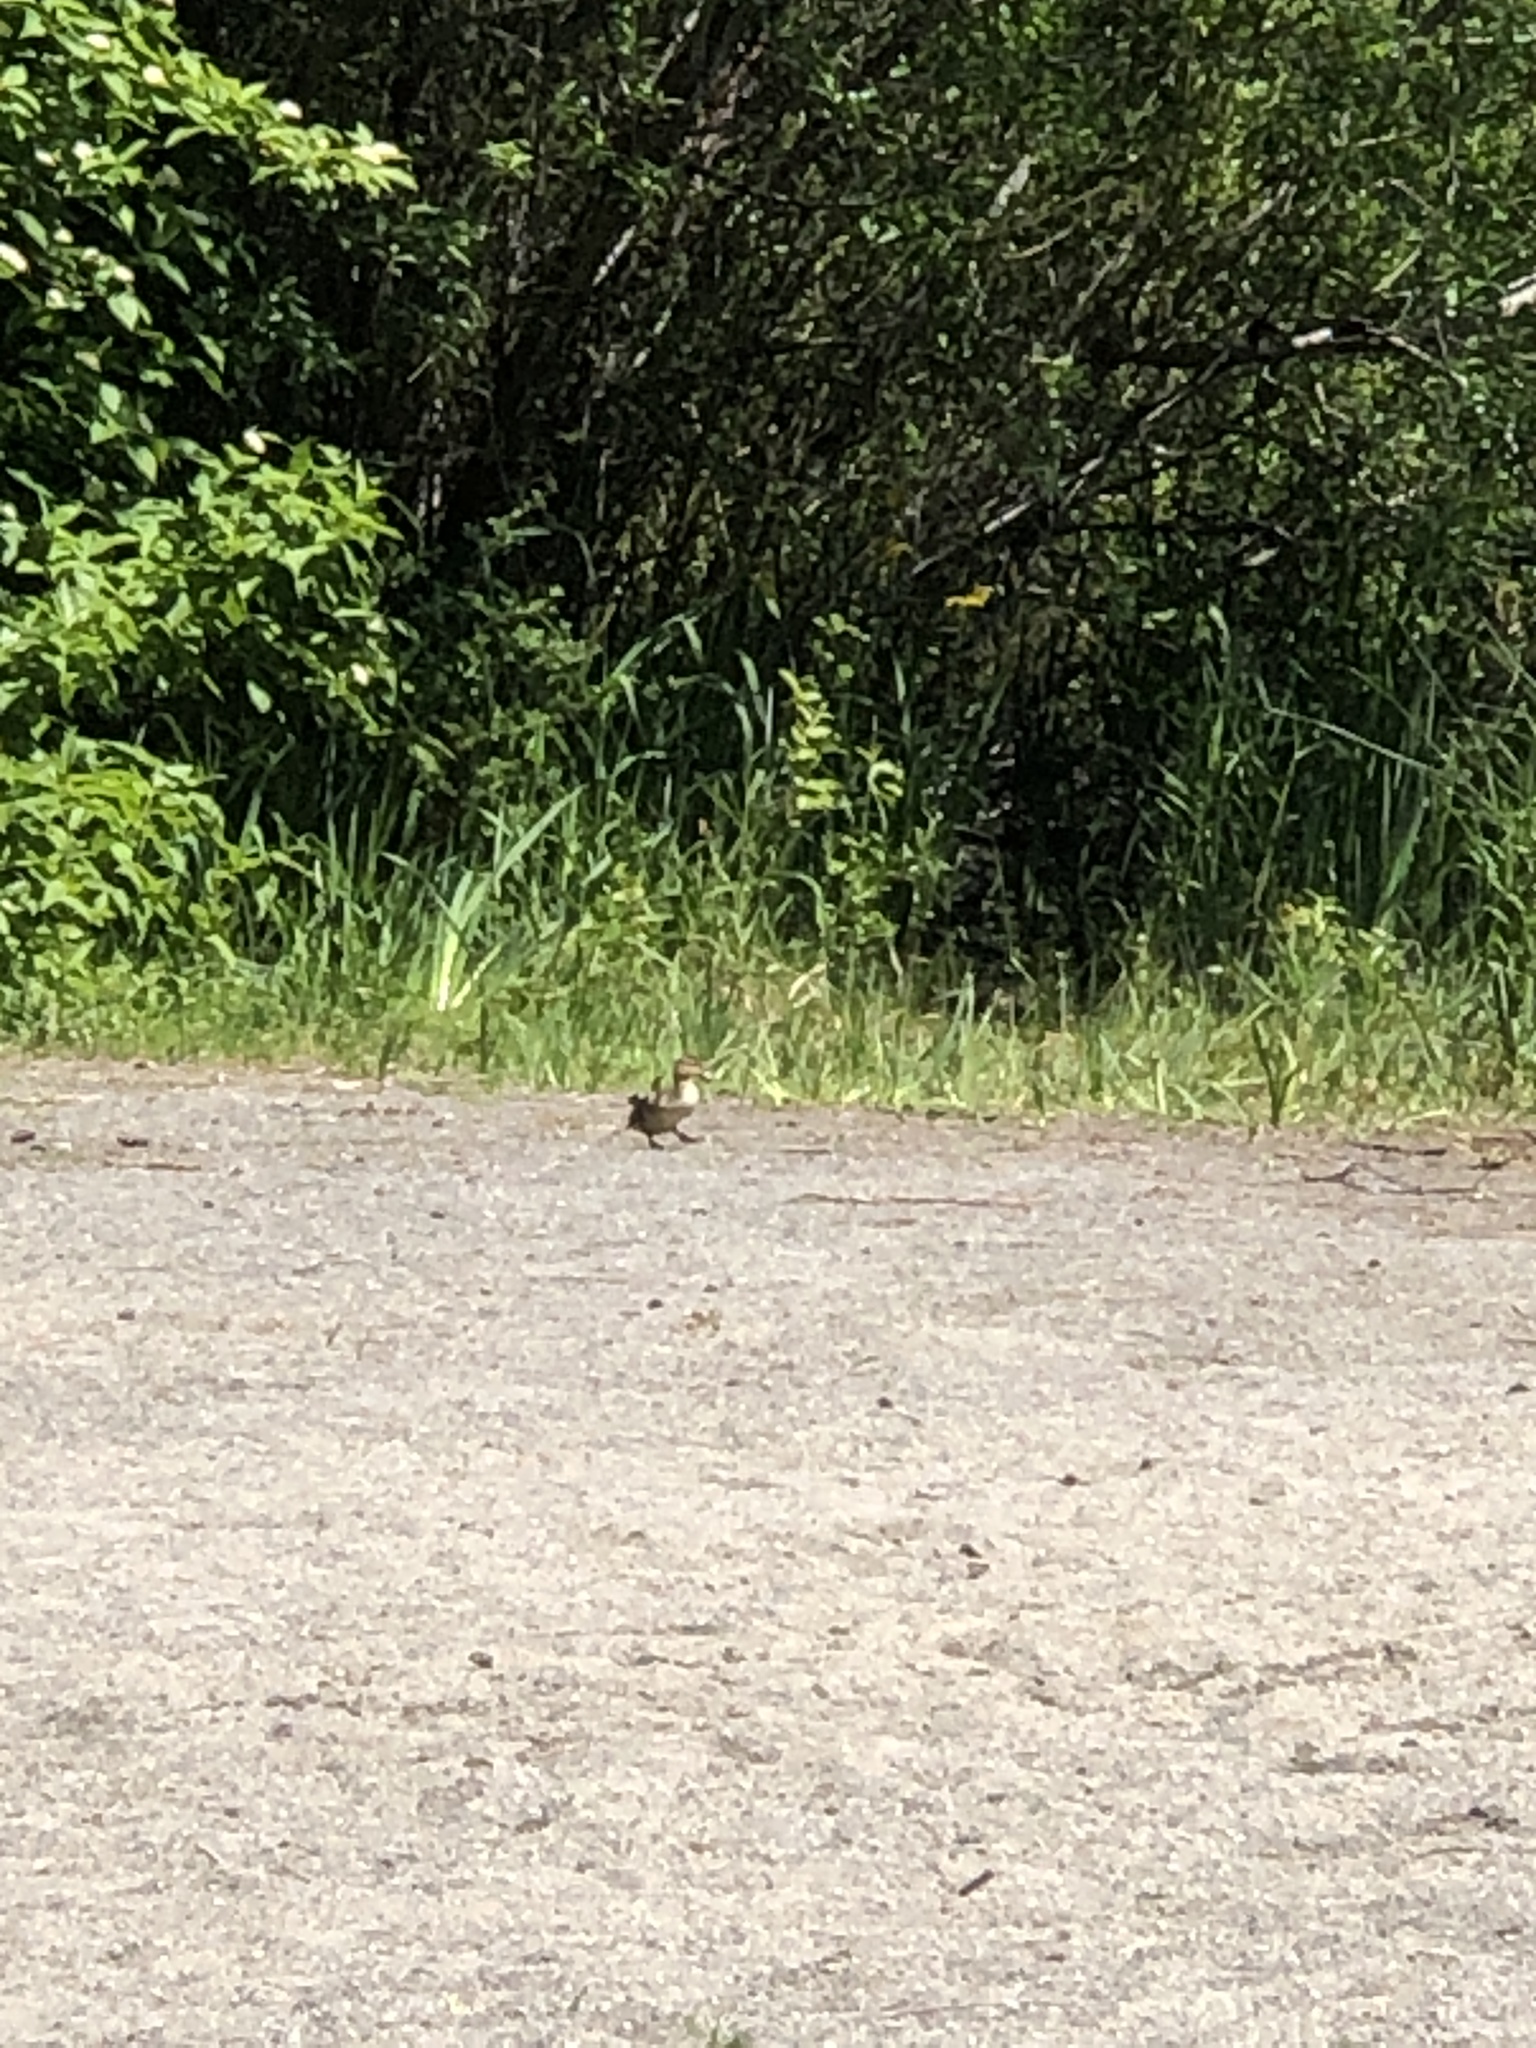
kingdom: Animalia
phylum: Chordata
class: Aves
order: Anseriformes
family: Anatidae
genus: Anas
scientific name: Anas platyrhynchos
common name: Mallard
